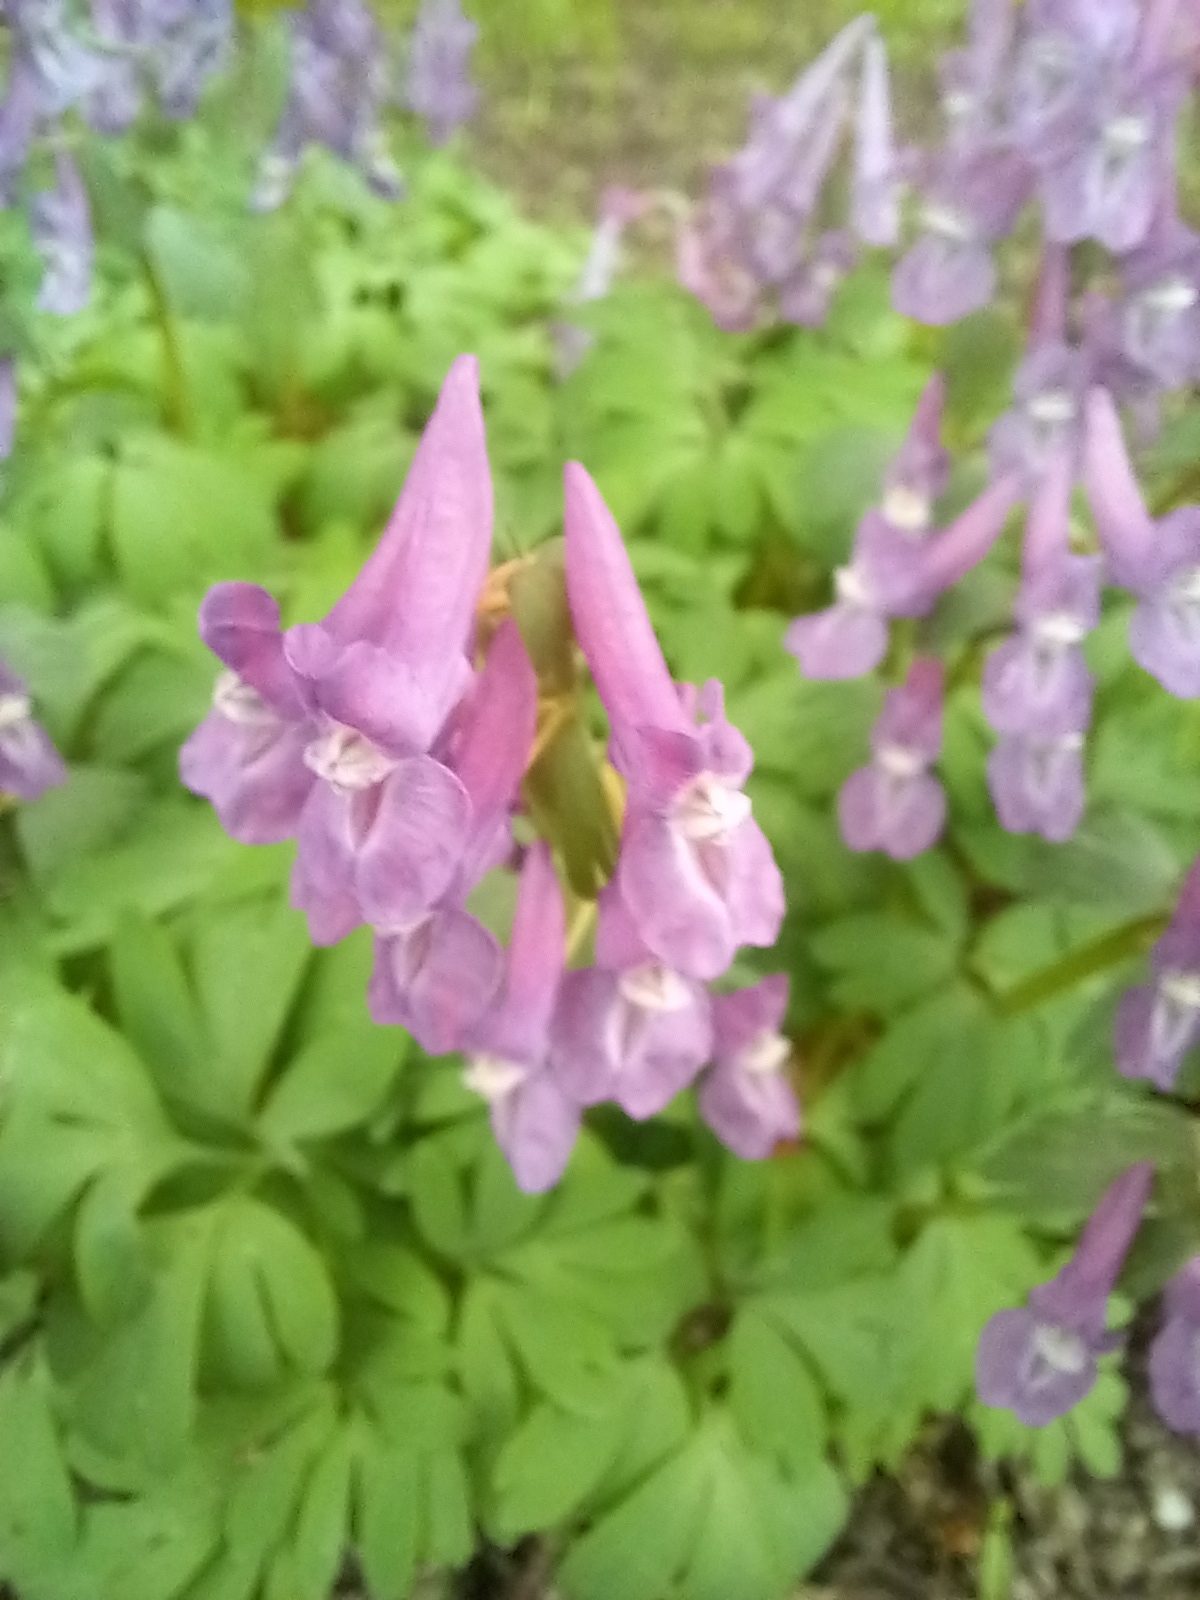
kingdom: Plantae
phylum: Tracheophyta
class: Magnoliopsida
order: Ranunculales
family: Papaveraceae
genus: Corydalis
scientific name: Corydalis solida
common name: Bird-in-a-bush
